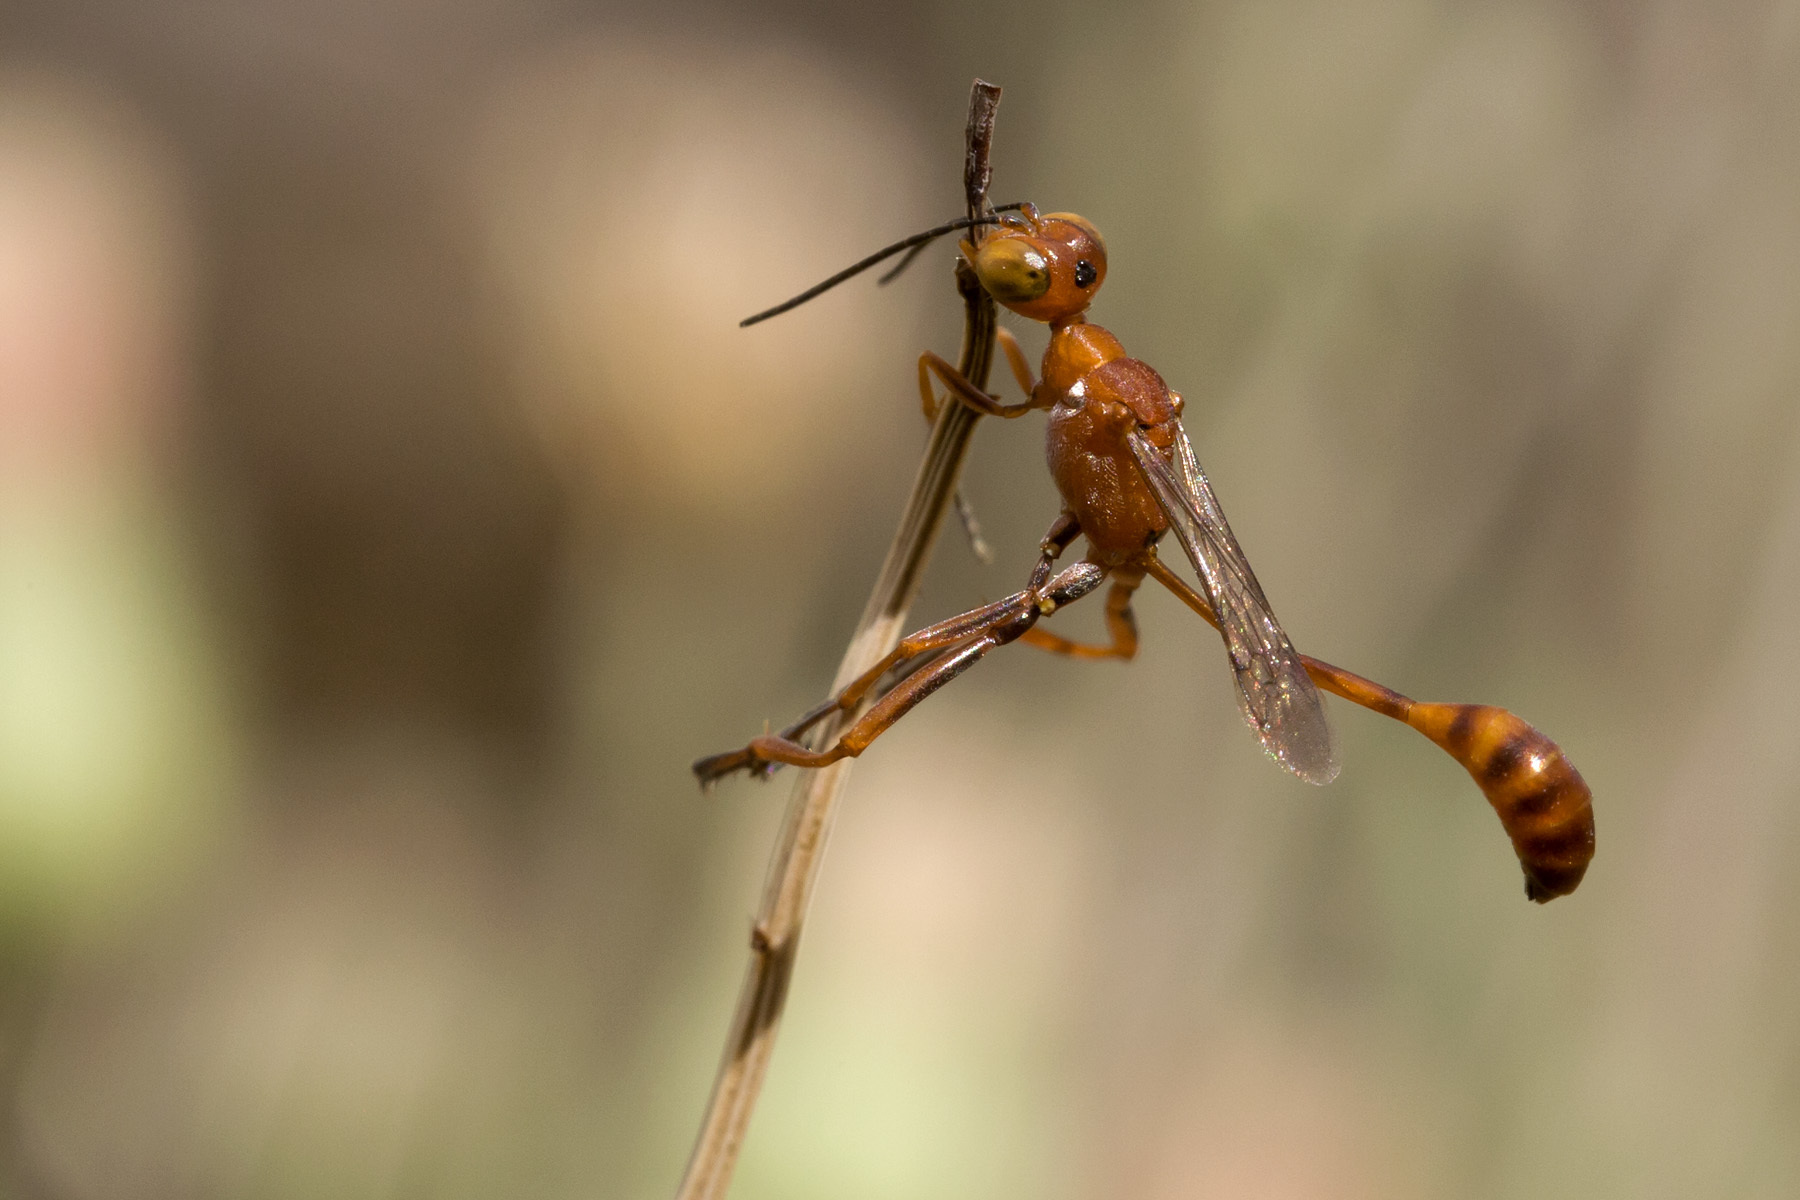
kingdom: Animalia
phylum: Arthropoda
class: Insecta
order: Hymenoptera
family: Sphecidae
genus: Ammophila
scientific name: Ammophila wrightii
